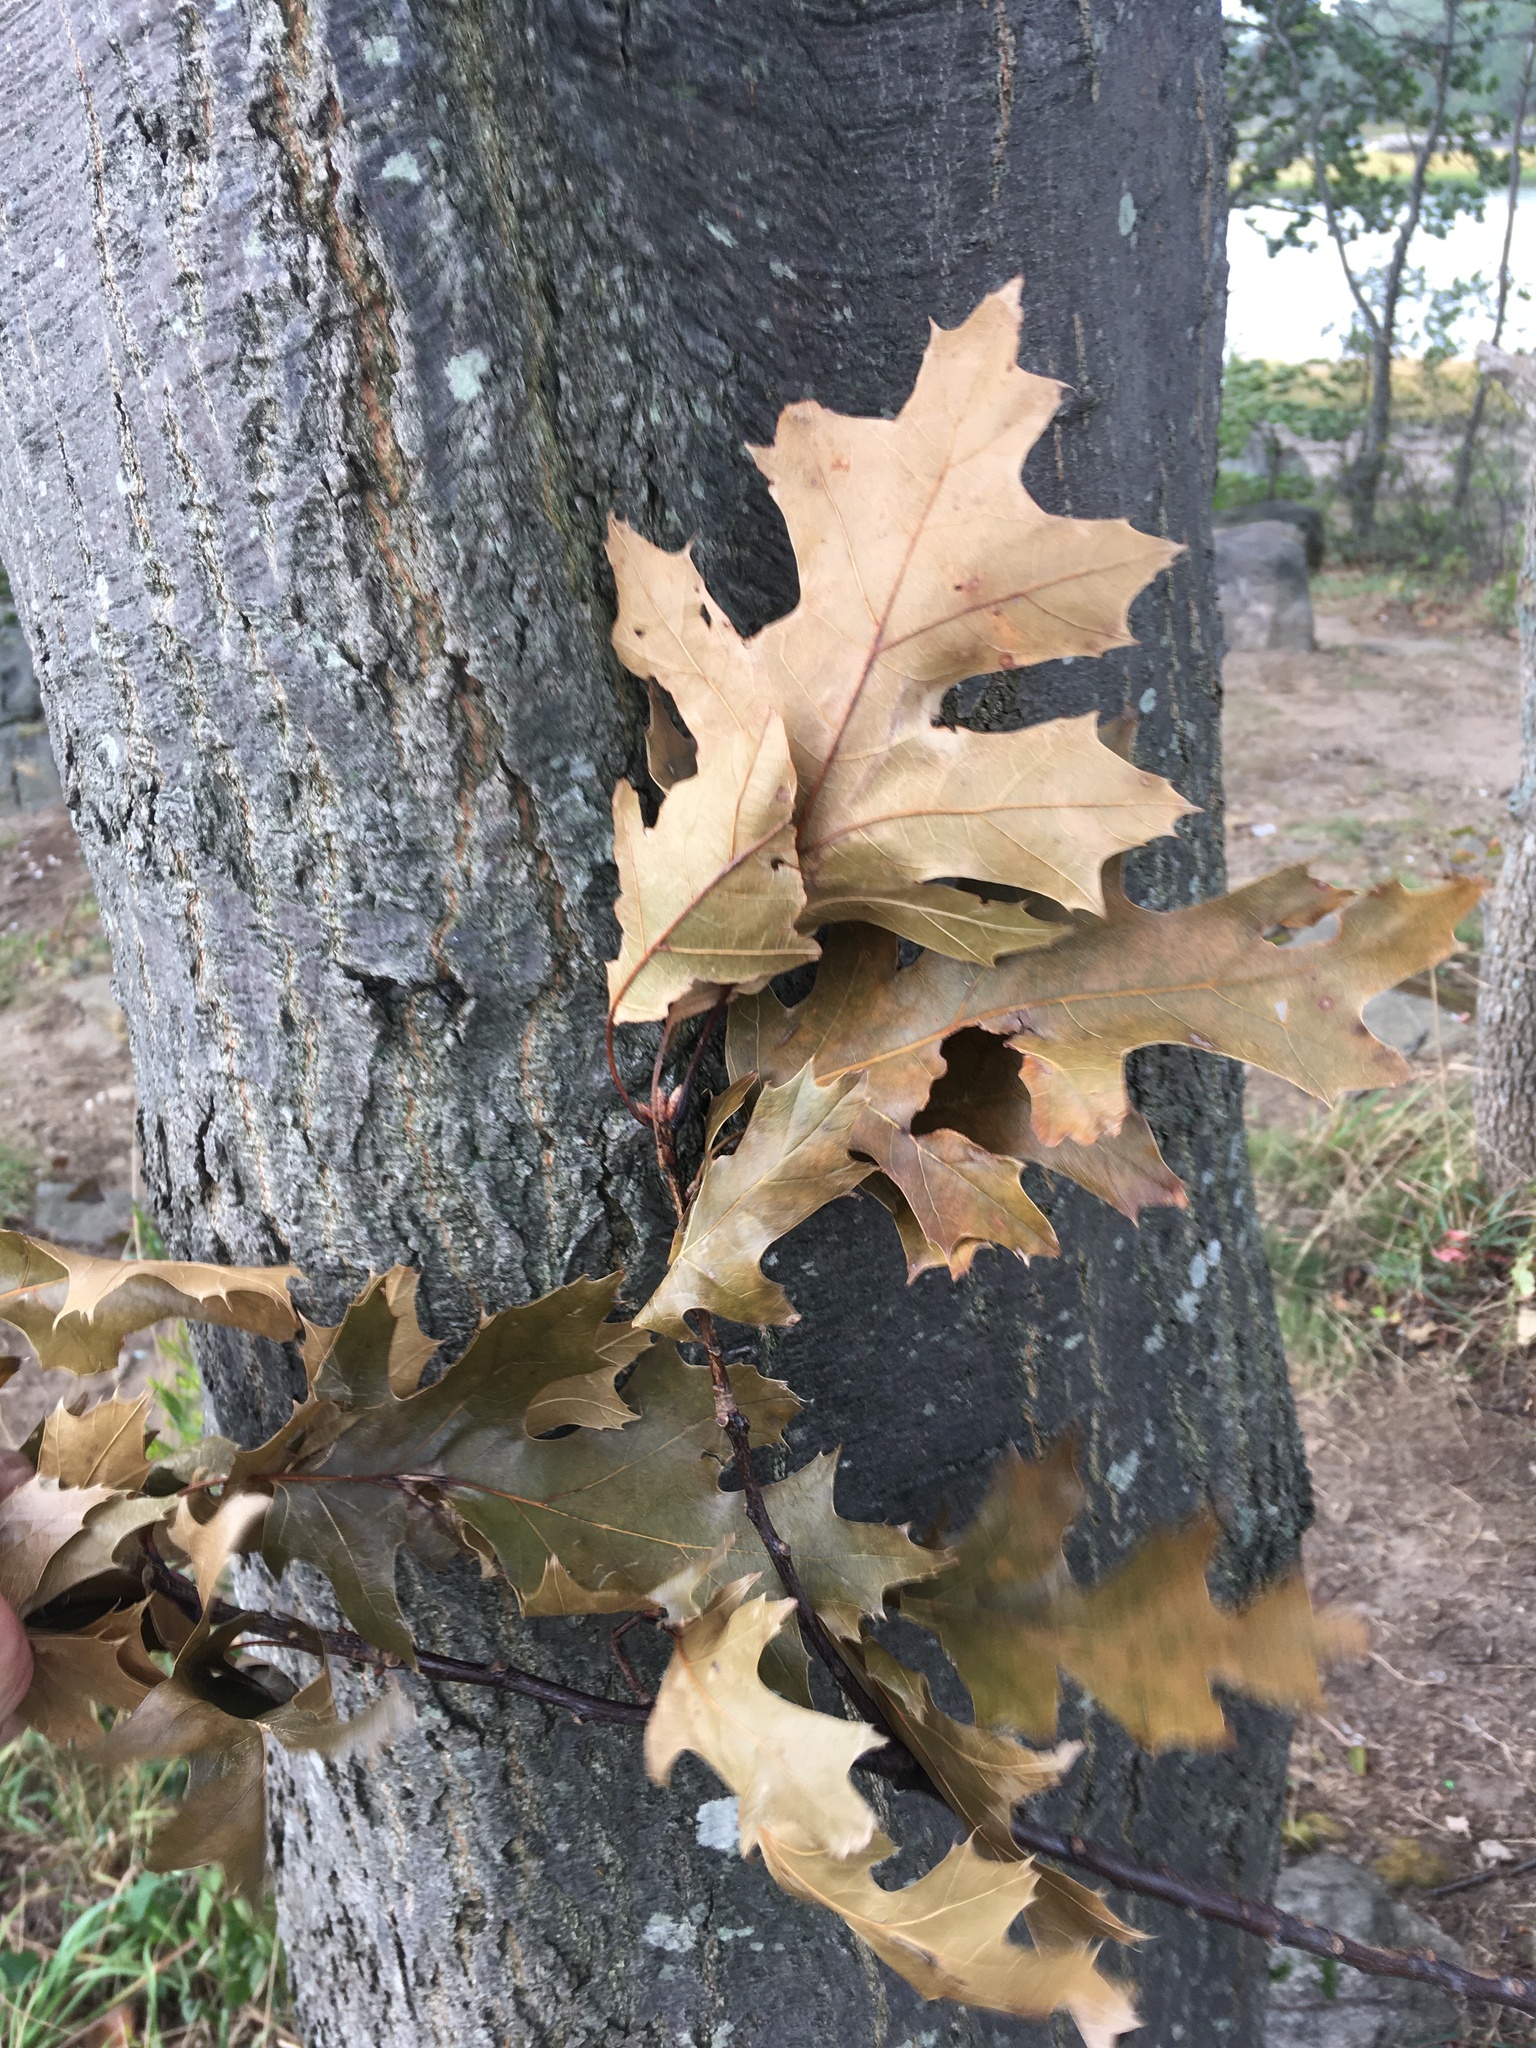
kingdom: Plantae
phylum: Tracheophyta
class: Magnoliopsida
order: Fagales
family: Fagaceae
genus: Quercus
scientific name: Quercus hawkinsiae
